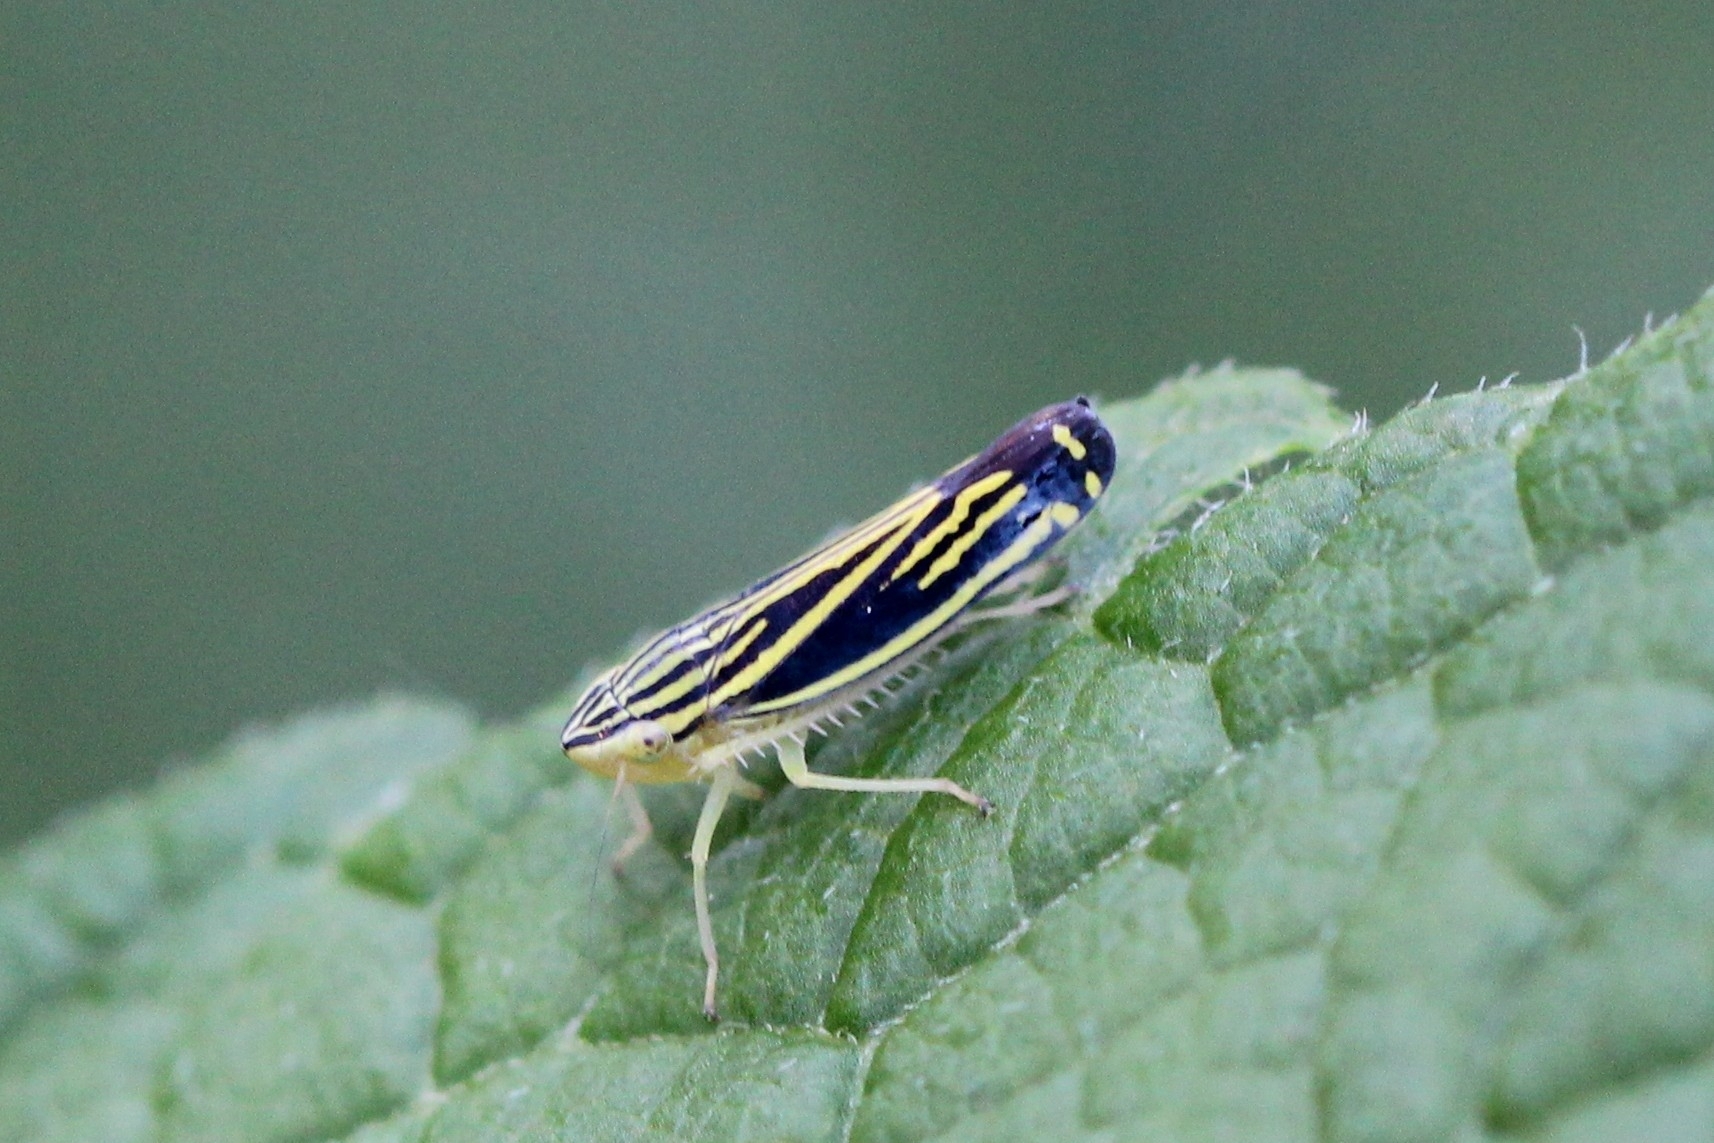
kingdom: Animalia
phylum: Arthropoda
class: Insecta
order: Hemiptera
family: Cicadellidae
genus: Sibovia
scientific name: Sibovia occatoria
